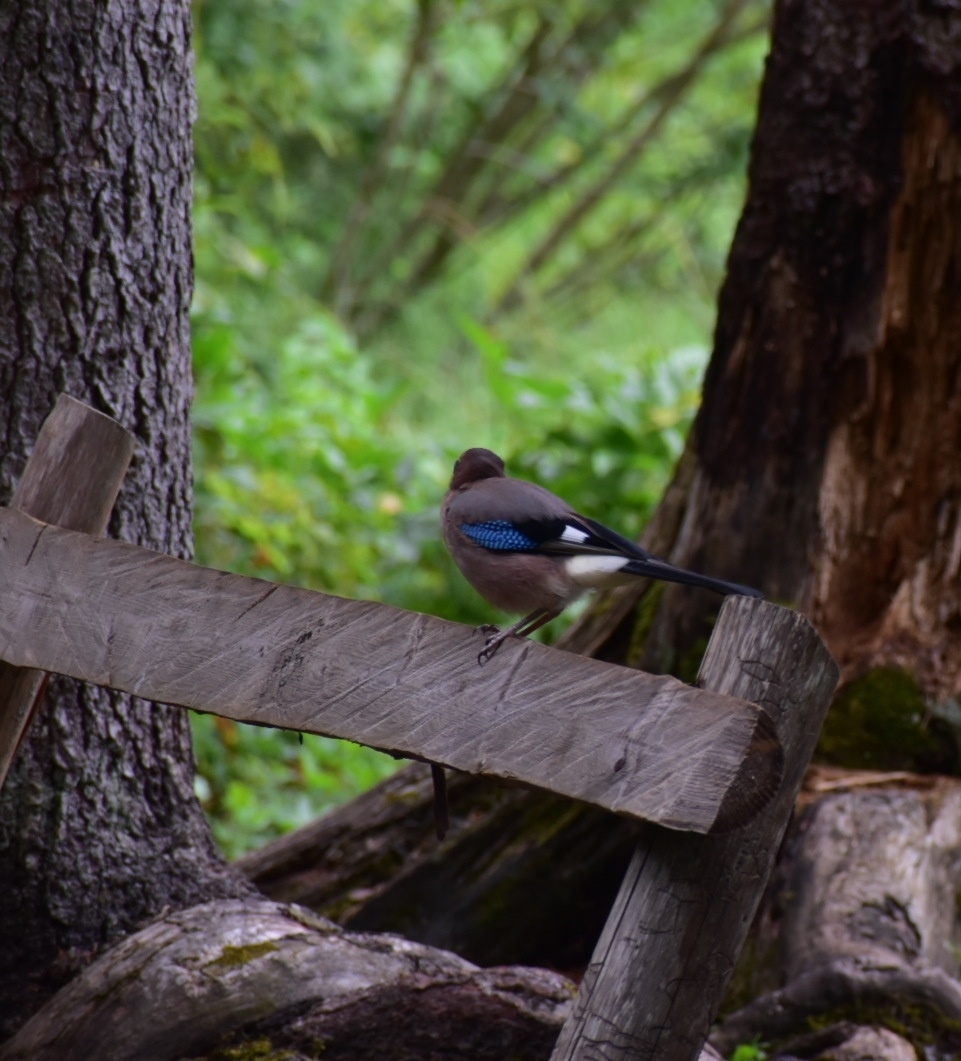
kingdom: Animalia
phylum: Chordata
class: Aves
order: Passeriformes
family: Corvidae
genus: Garrulus
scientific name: Garrulus glandarius
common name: Eurasian jay
